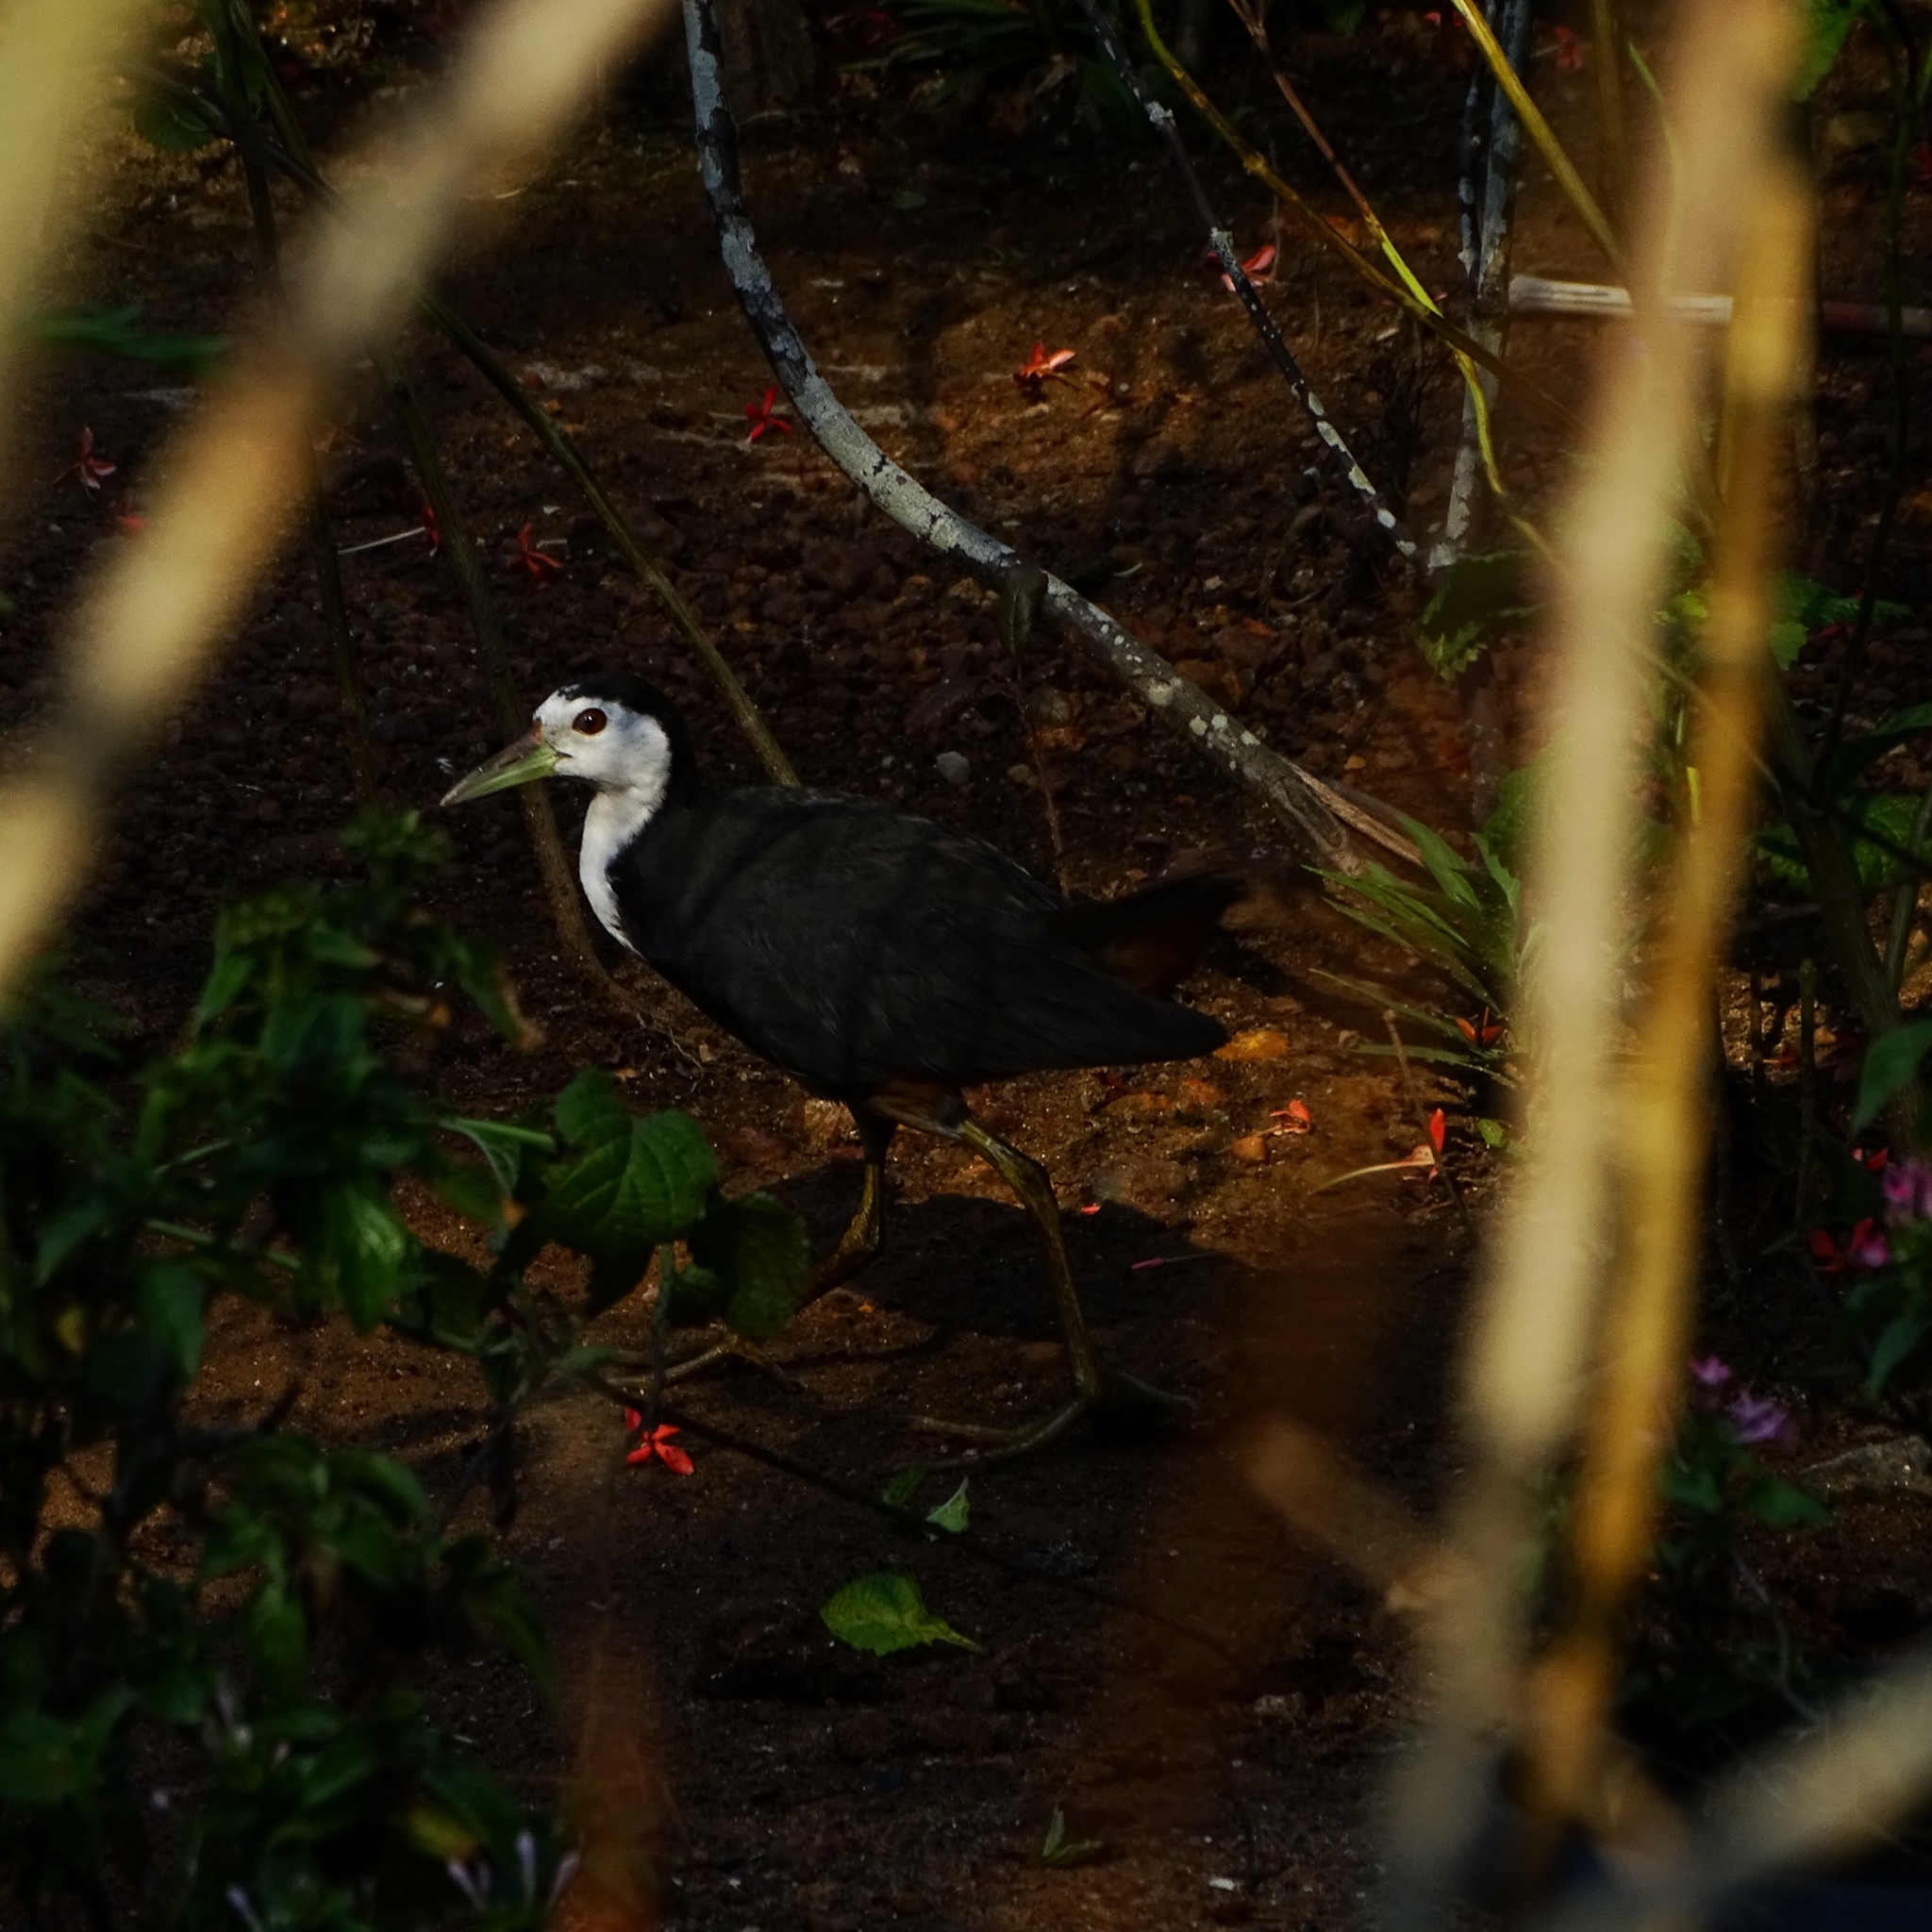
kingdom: Animalia
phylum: Chordata
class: Aves
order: Gruiformes
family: Rallidae
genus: Amaurornis
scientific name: Amaurornis phoenicurus
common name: White-breasted waterhen
